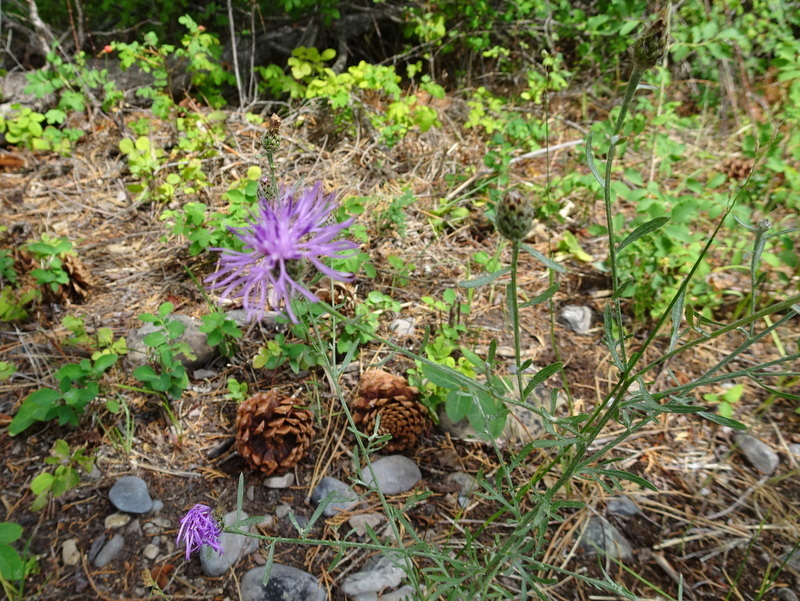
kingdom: Plantae
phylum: Tracheophyta
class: Magnoliopsida
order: Asterales
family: Asteraceae
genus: Centaurea
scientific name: Centaurea stoebe
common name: Spotted knapweed
